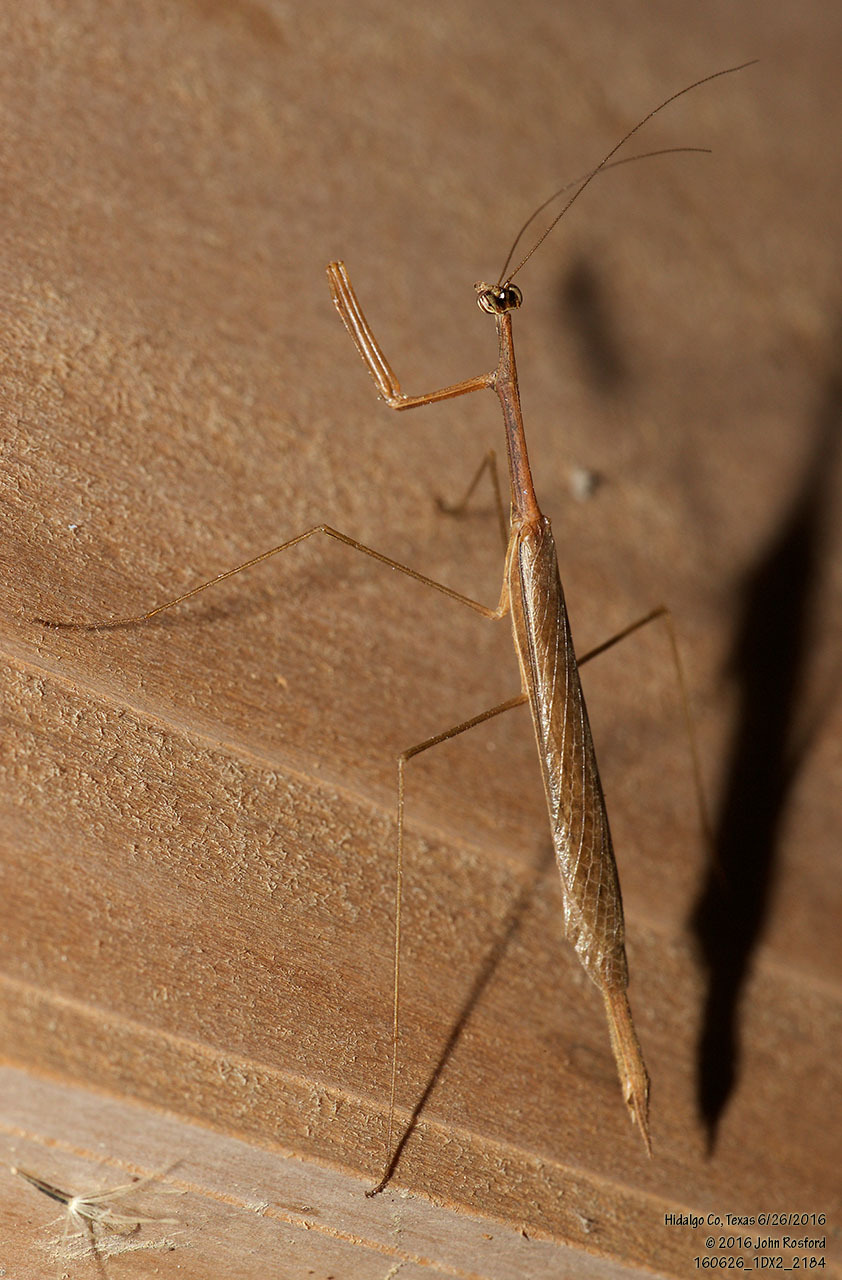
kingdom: Animalia
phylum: Arthropoda
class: Insecta
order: Mantodea
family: Thespidae
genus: Bistanta
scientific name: Bistanta campestris
